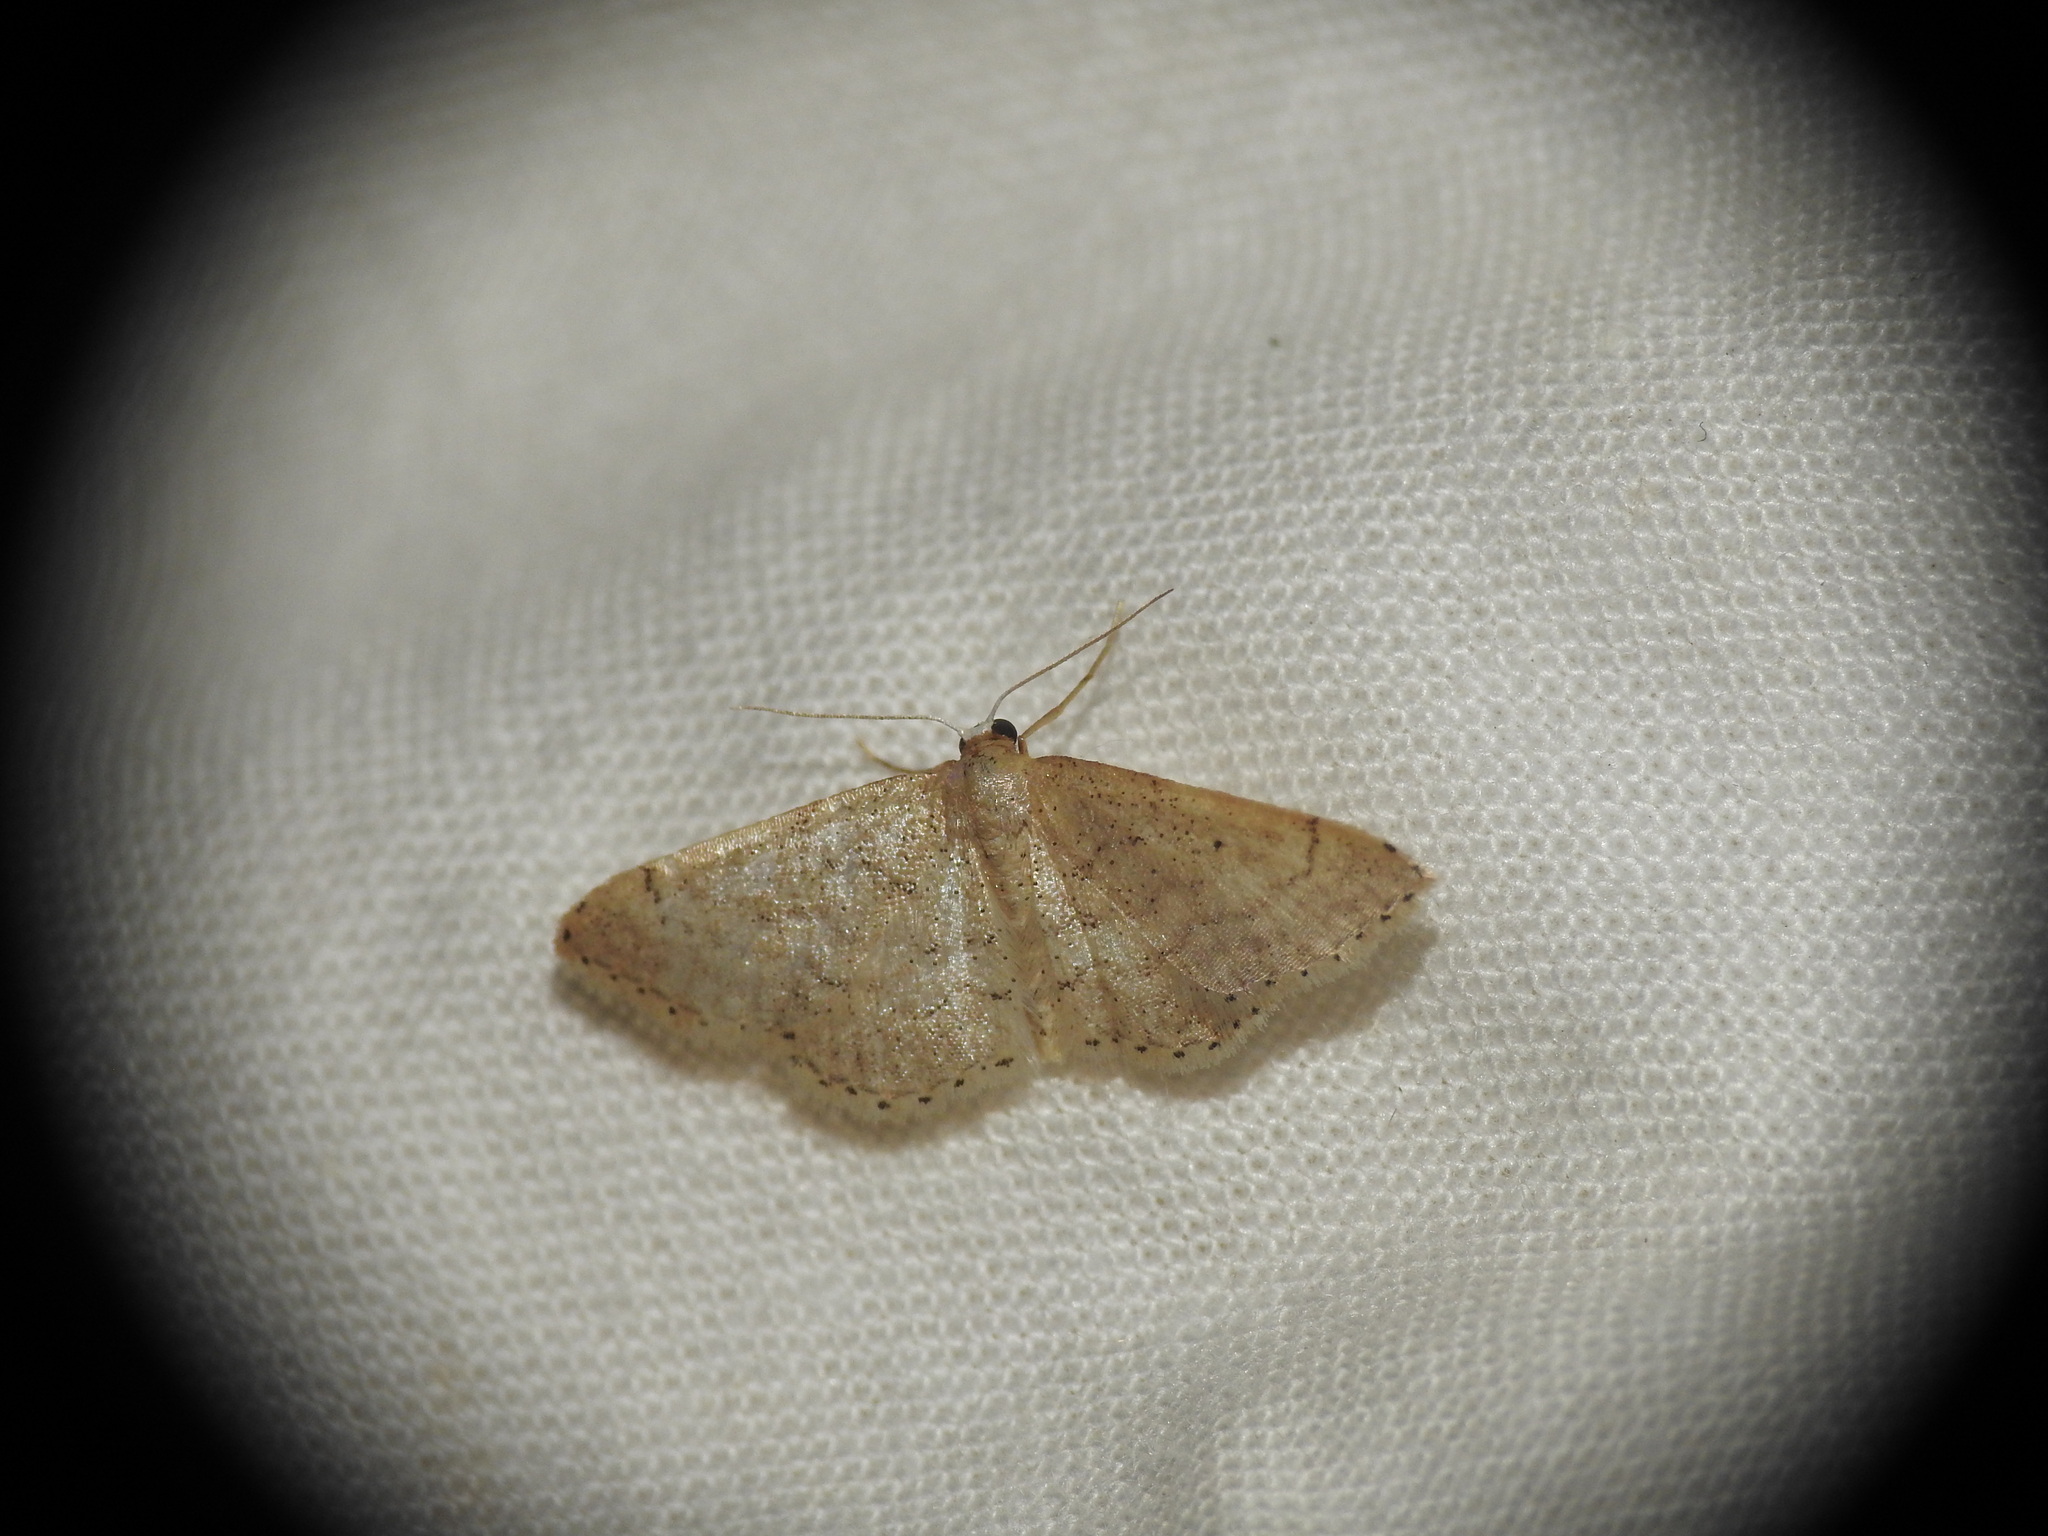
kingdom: Animalia
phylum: Arthropoda
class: Insecta
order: Lepidoptera
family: Geometridae
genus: Idaea
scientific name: Idaea obsoletaria
